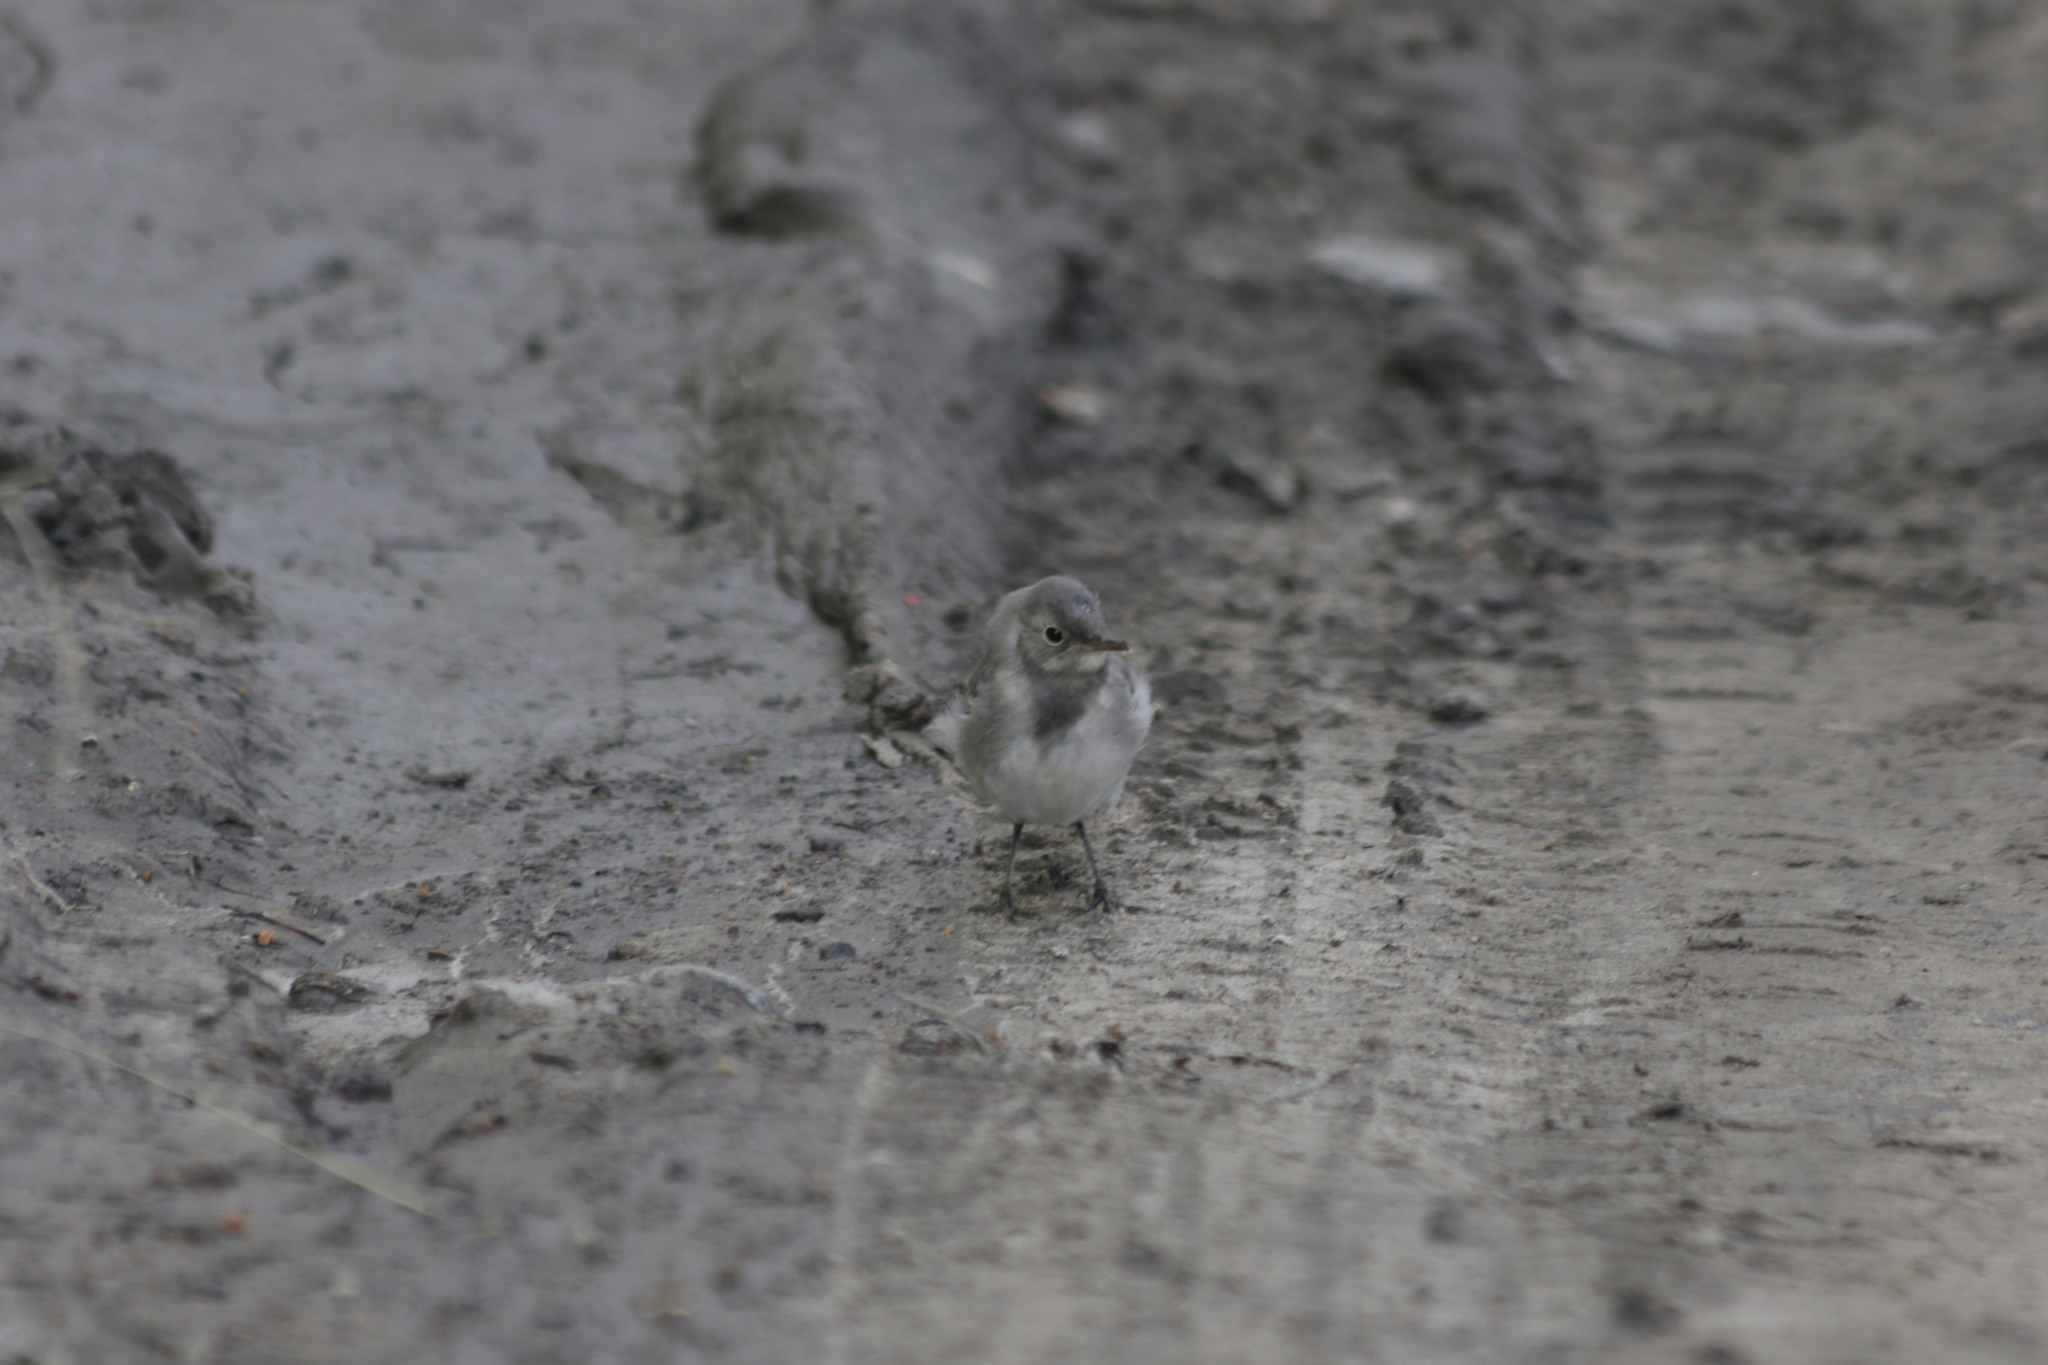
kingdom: Animalia
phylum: Chordata
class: Aves
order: Passeriformes
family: Motacillidae
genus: Motacilla
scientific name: Motacilla alba
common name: White wagtail
